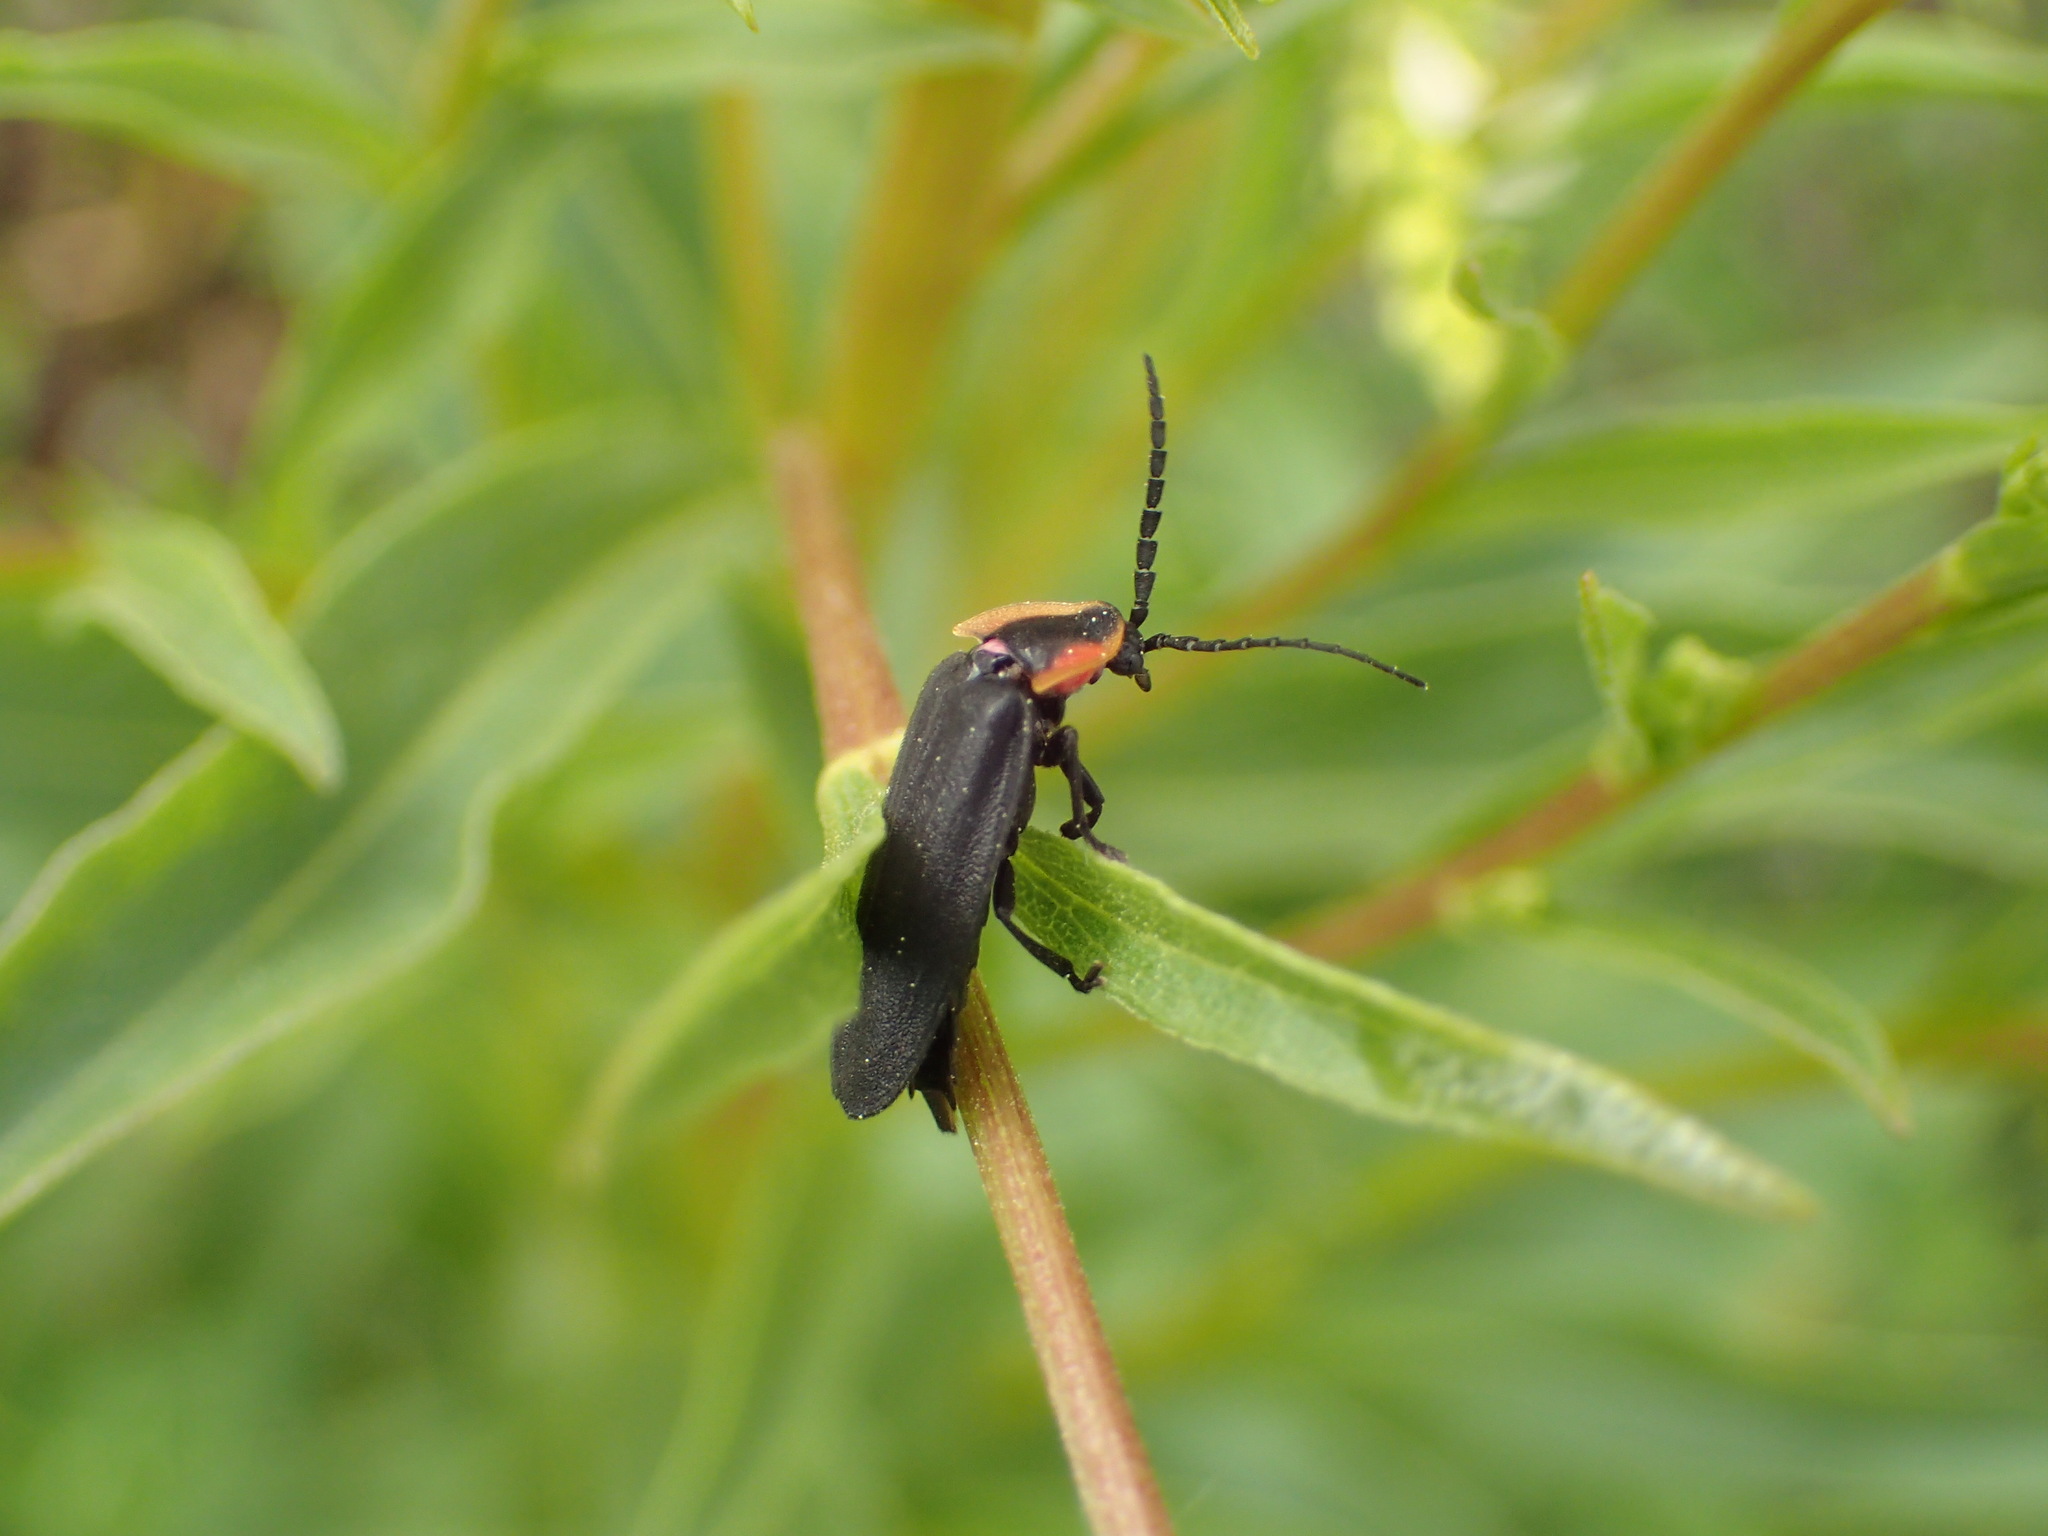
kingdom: Animalia
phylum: Arthropoda
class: Insecta
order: Coleoptera
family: Lampyridae
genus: Lucidota
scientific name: Lucidota atra
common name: Black firefly
